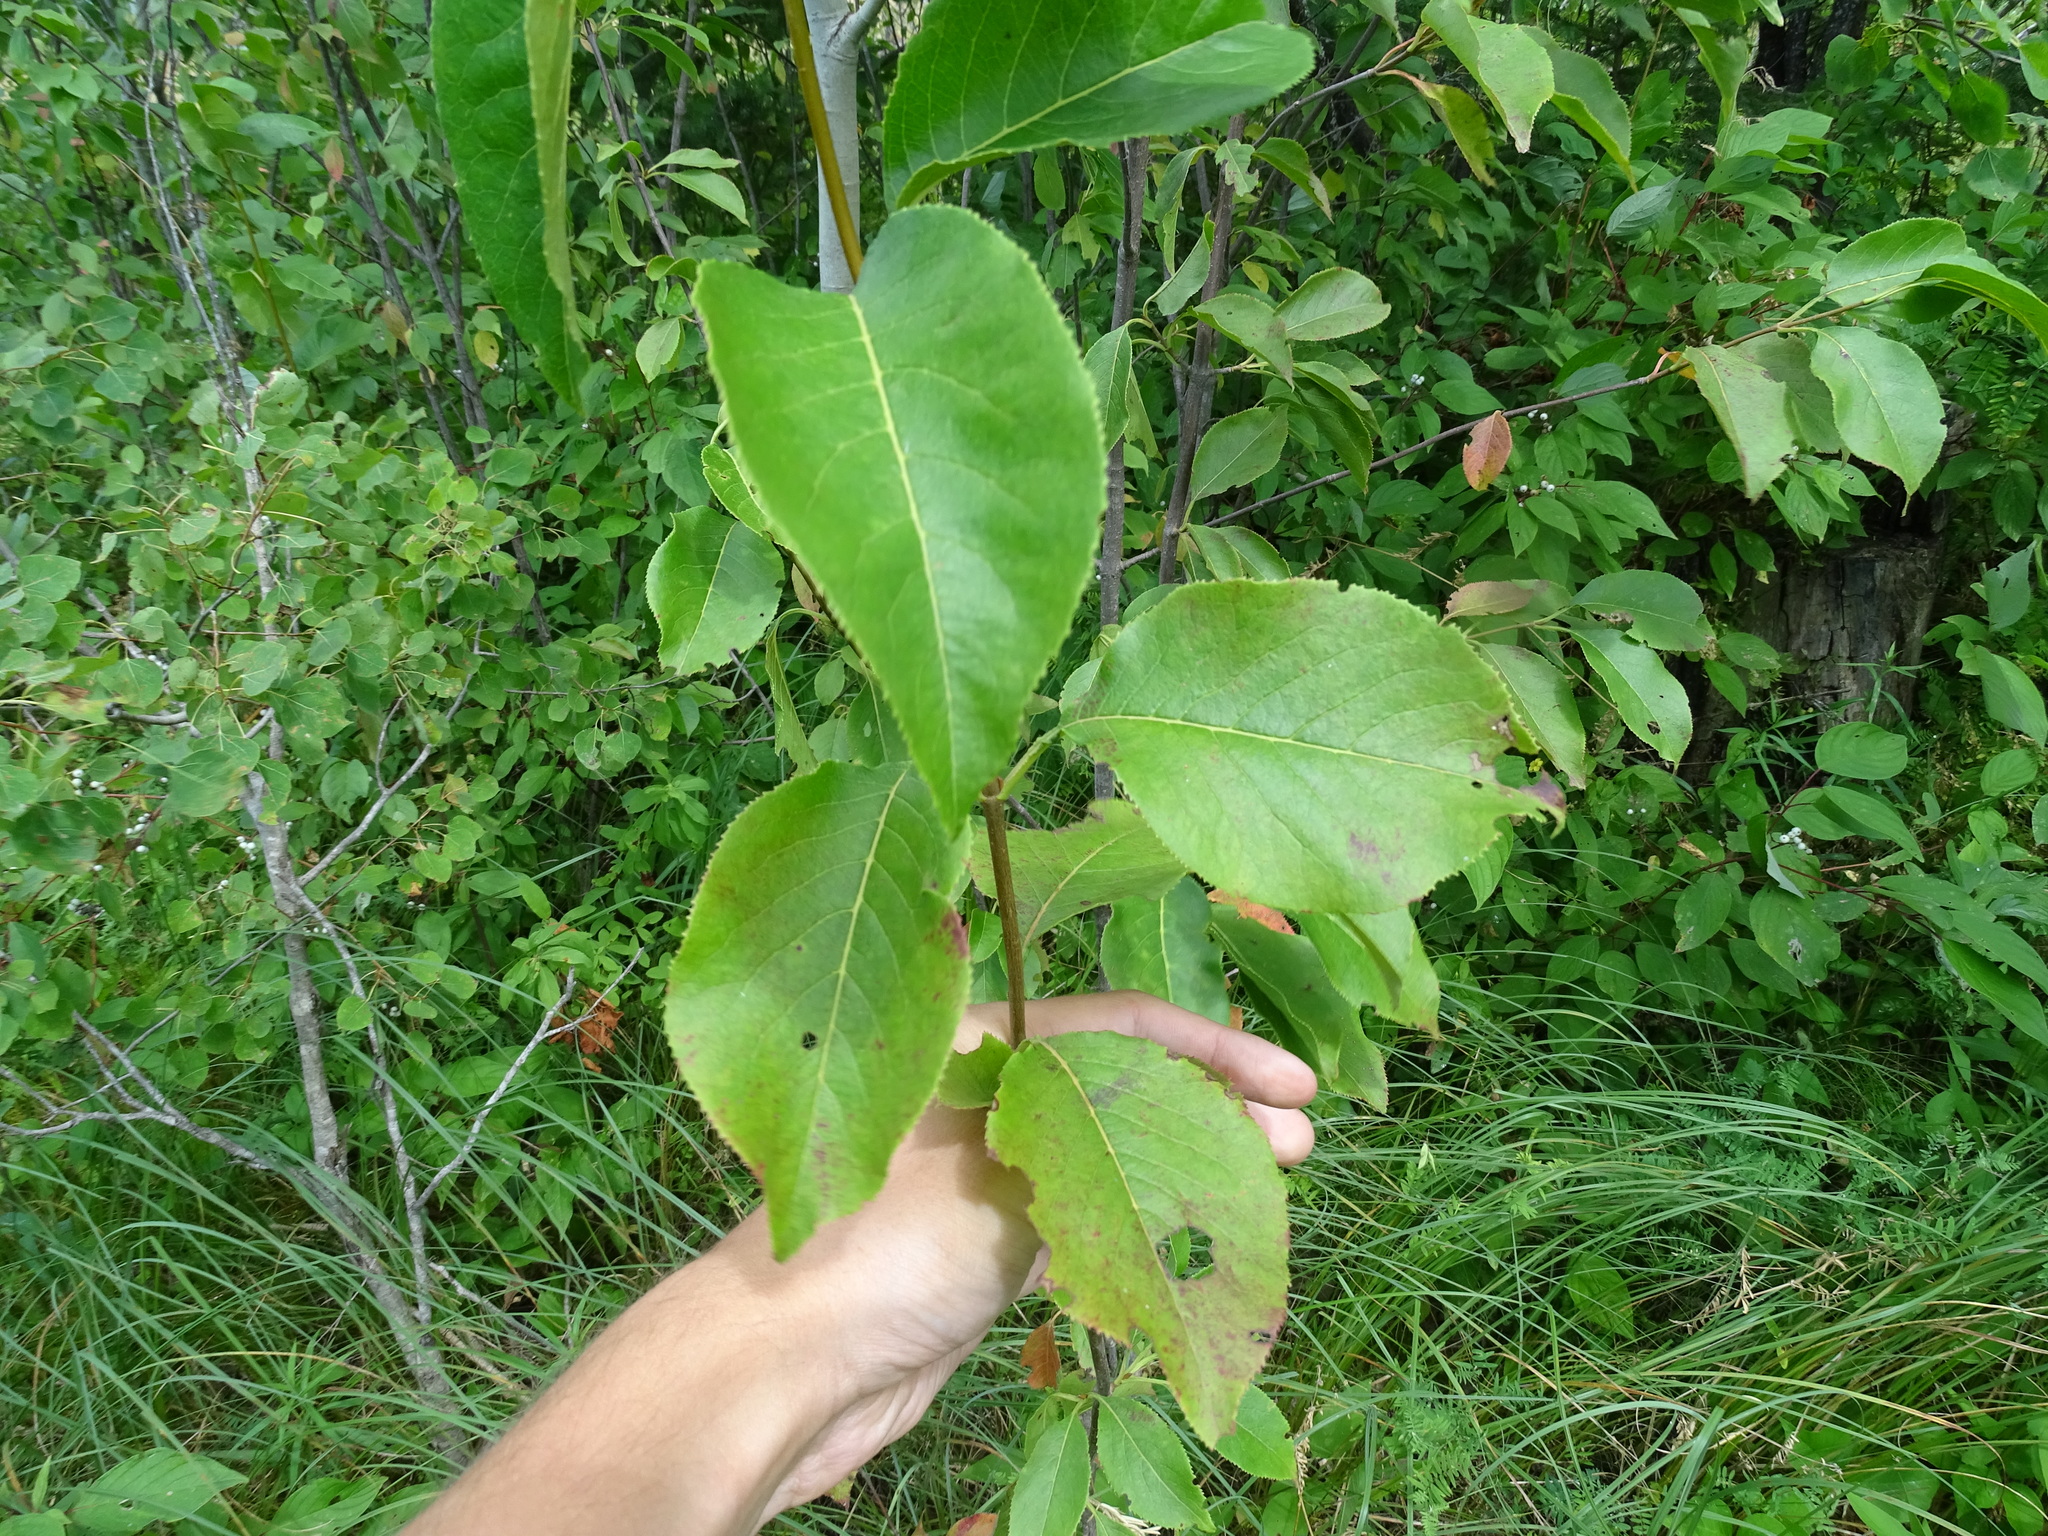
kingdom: Plantae
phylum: Tracheophyta
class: Magnoliopsida
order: Dipsacales
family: Viburnaceae
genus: Viburnum
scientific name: Viburnum lentago
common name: Black haw
